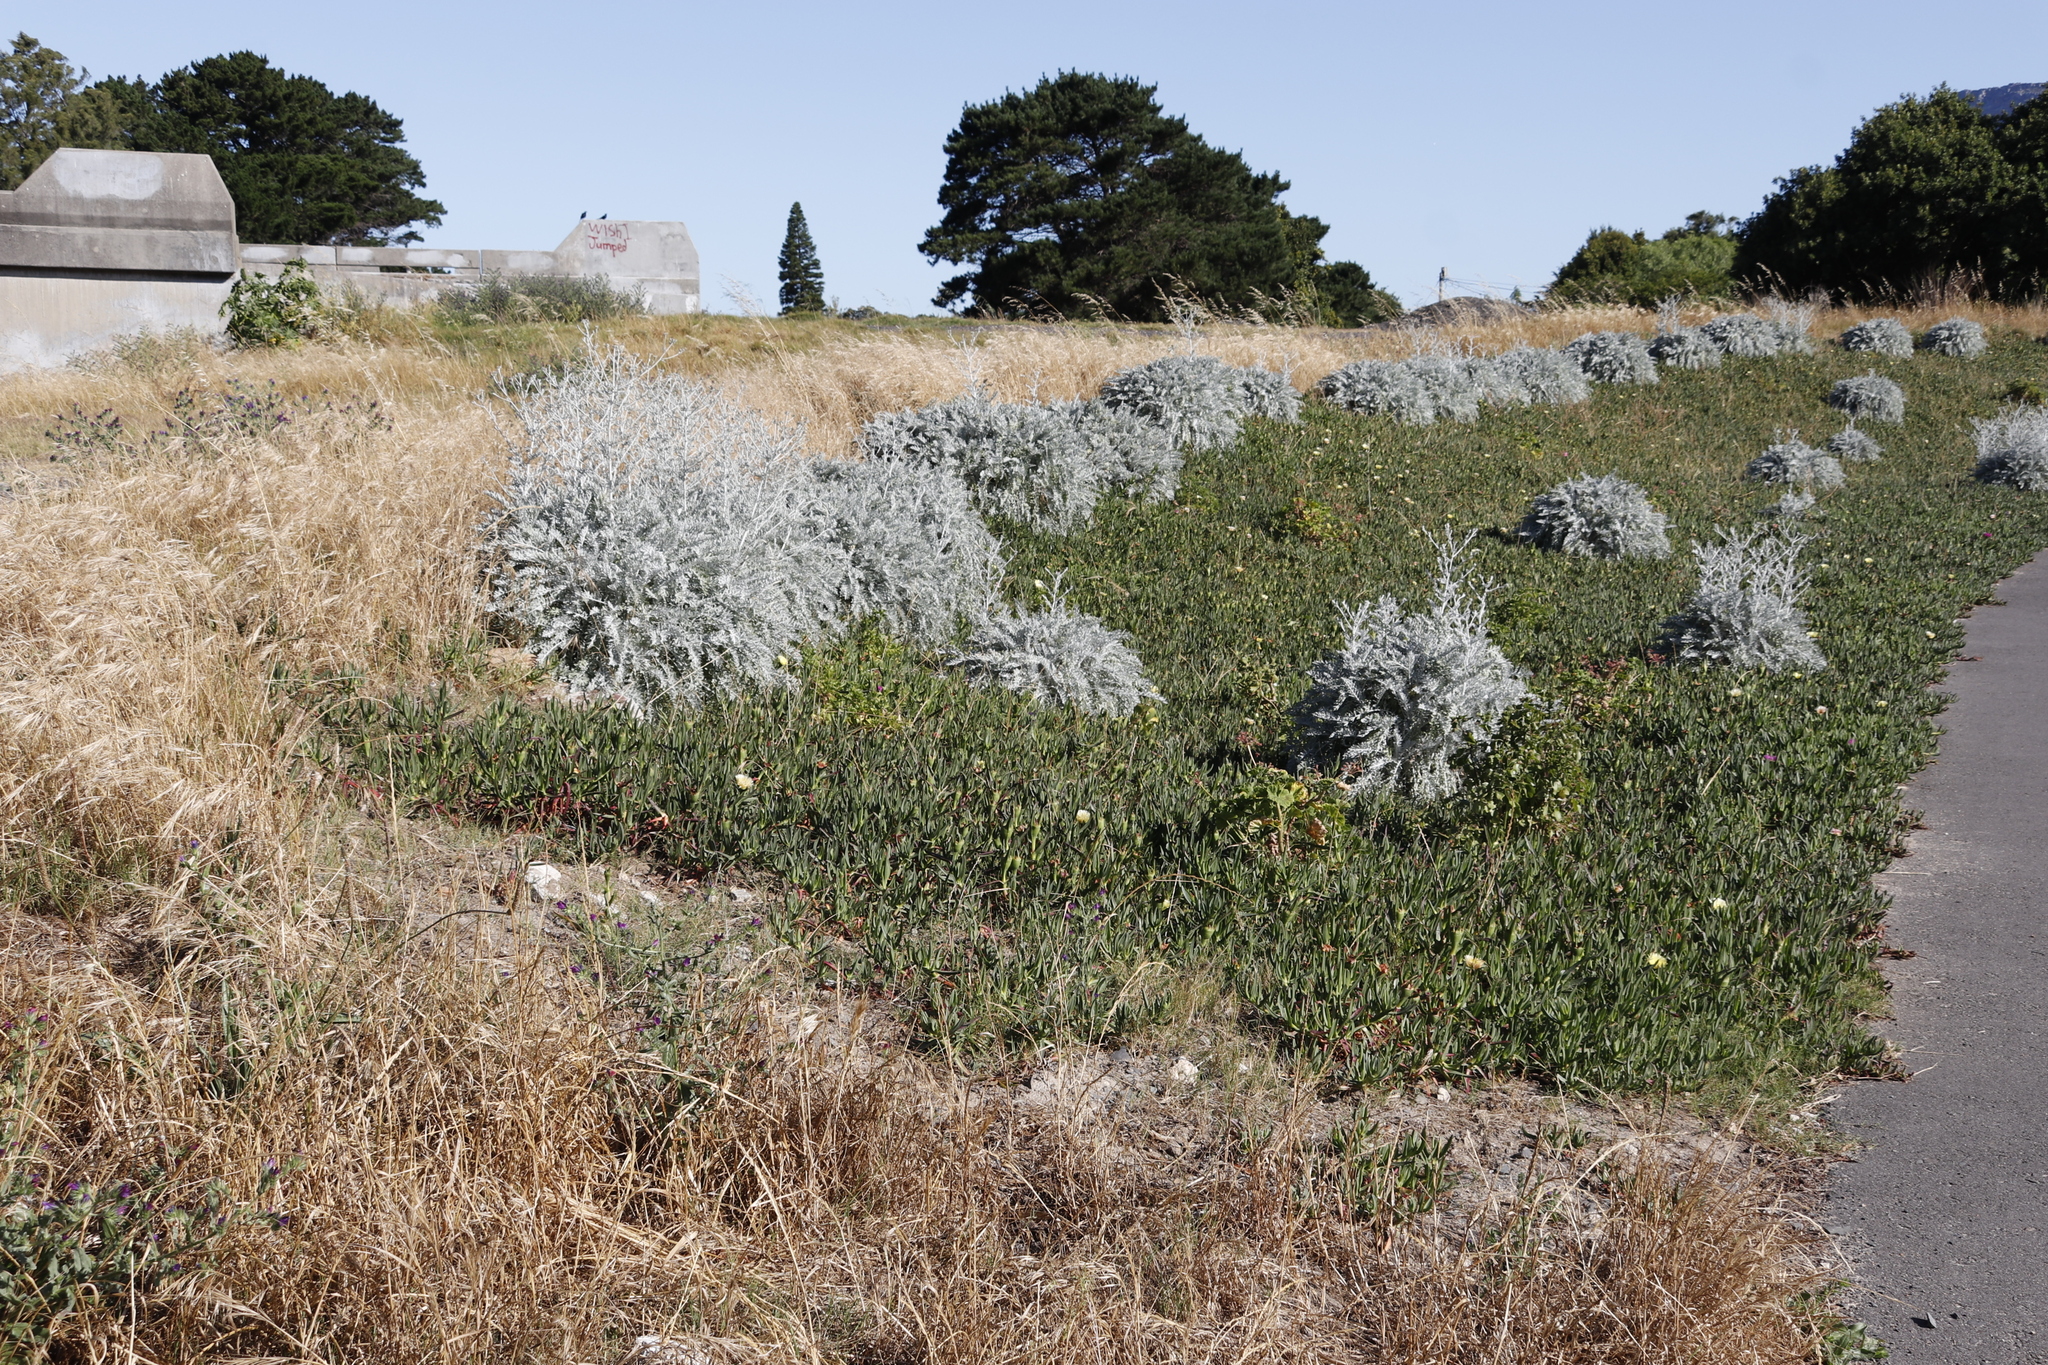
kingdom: Plantae
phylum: Tracheophyta
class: Magnoliopsida
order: Caryophyllales
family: Aizoaceae
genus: Carpobrotus
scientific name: Carpobrotus edulis
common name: Hottentot-fig
